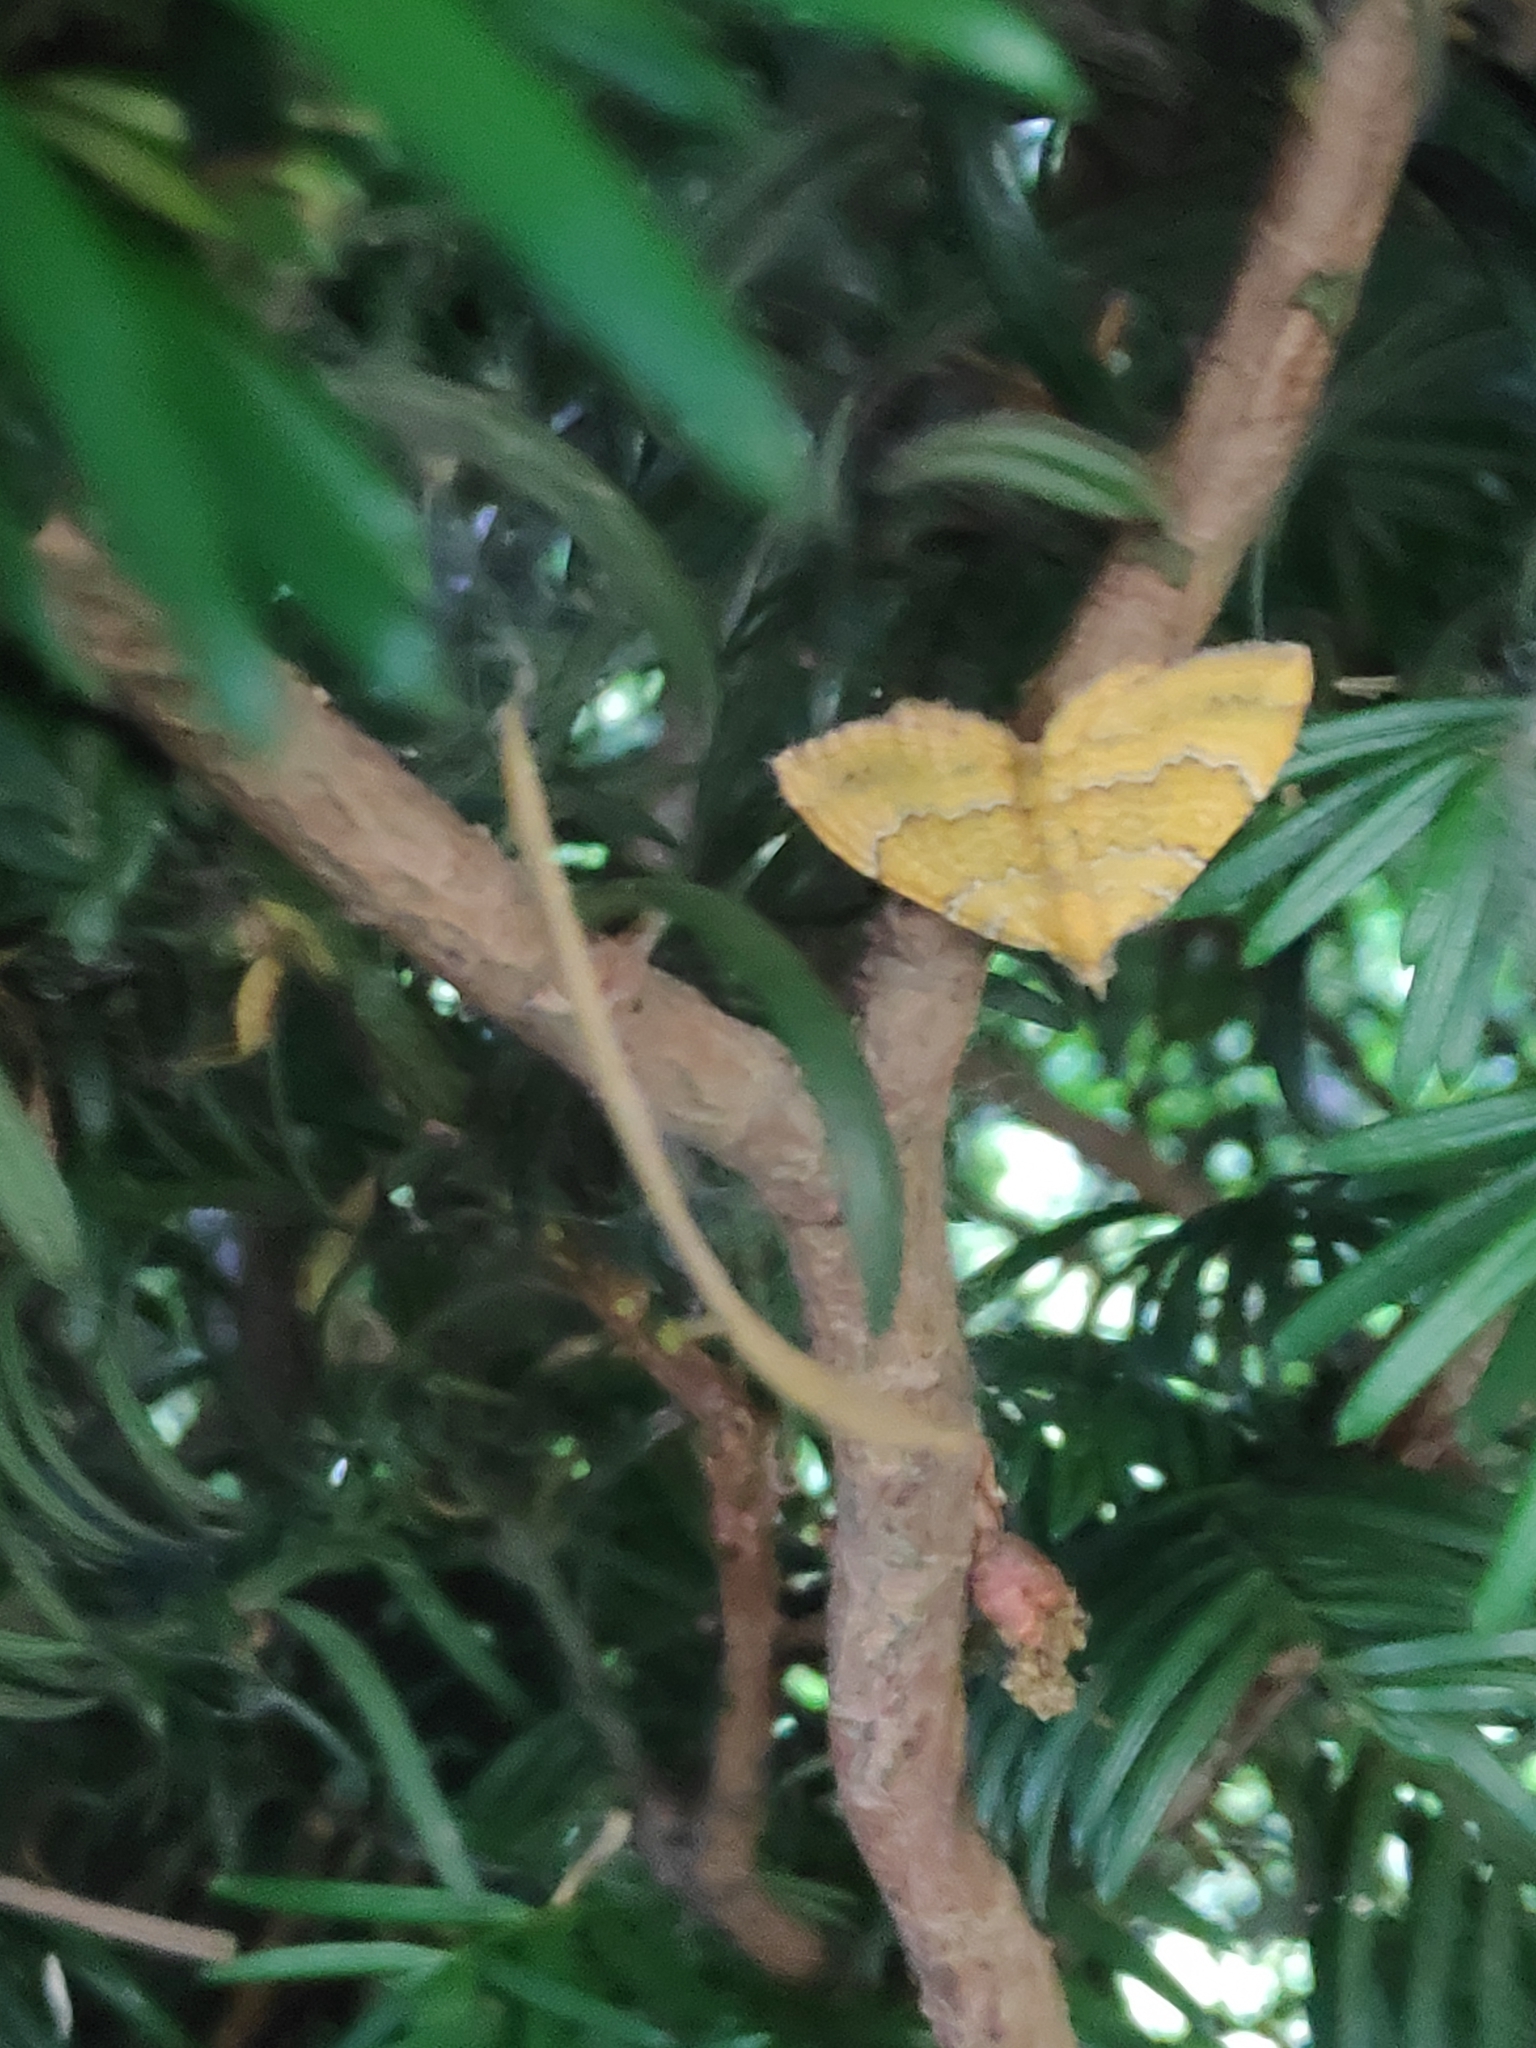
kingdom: Animalia
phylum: Arthropoda
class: Insecta
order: Lepidoptera
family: Geometridae
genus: Camptogramma
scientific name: Camptogramma bilineata
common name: Yellow shell
